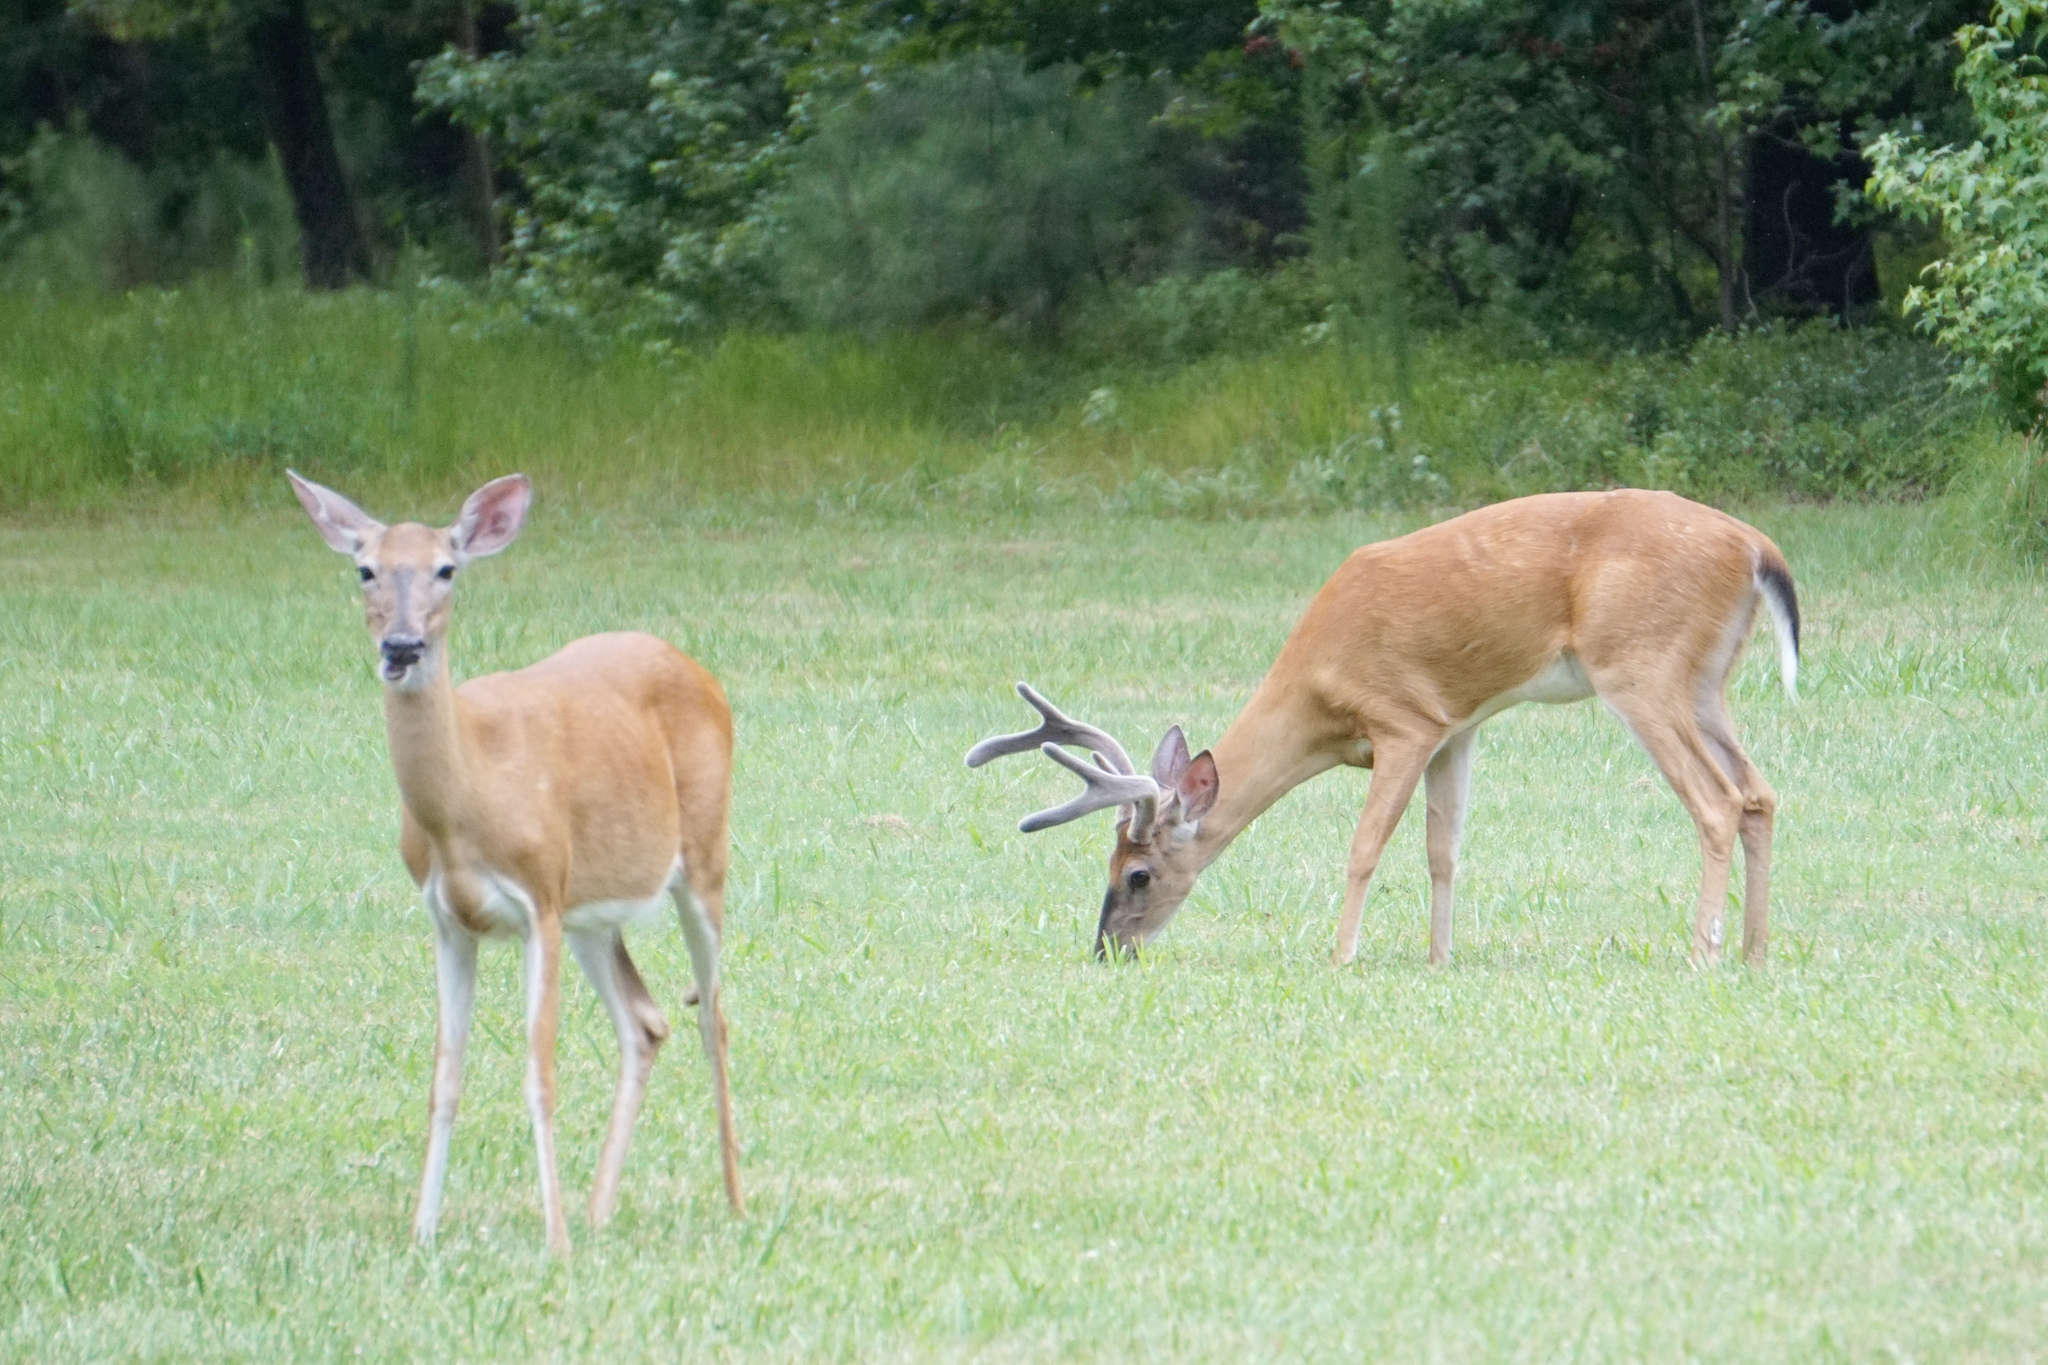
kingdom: Animalia
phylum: Chordata
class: Mammalia
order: Artiodactyla
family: Cervidae
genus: Odocoileus
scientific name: Odocoileus virginianus
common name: White-tailed deer
